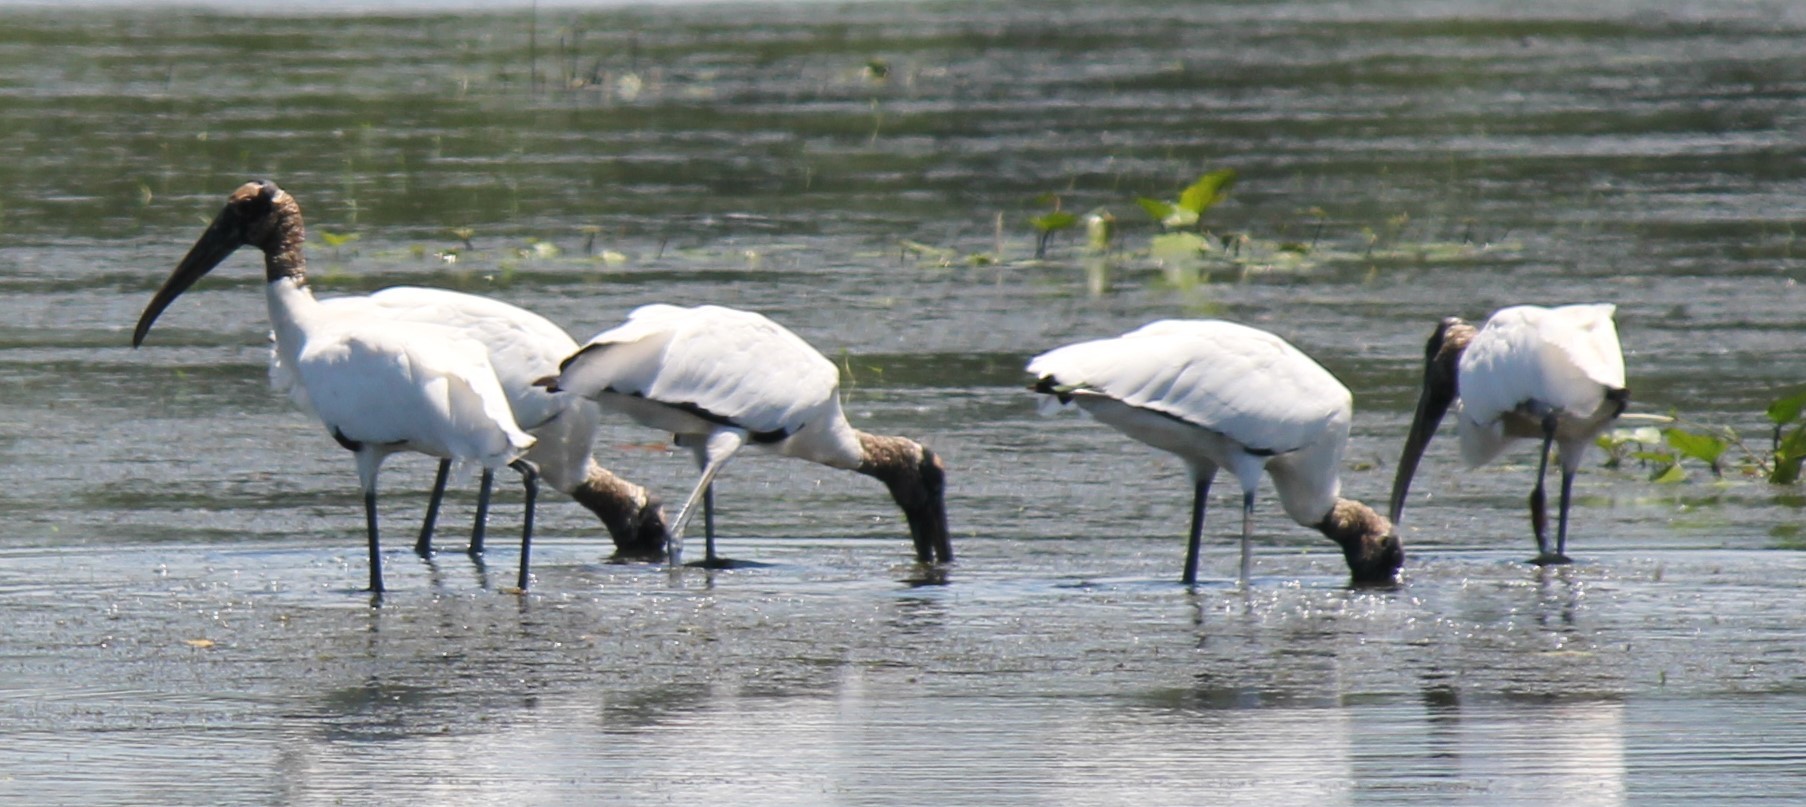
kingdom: Animalia
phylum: Chordata
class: Aves
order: Ciconiiformes
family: Ciconiidae
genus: Mycteria
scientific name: Mycteria americana
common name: Wood stork
